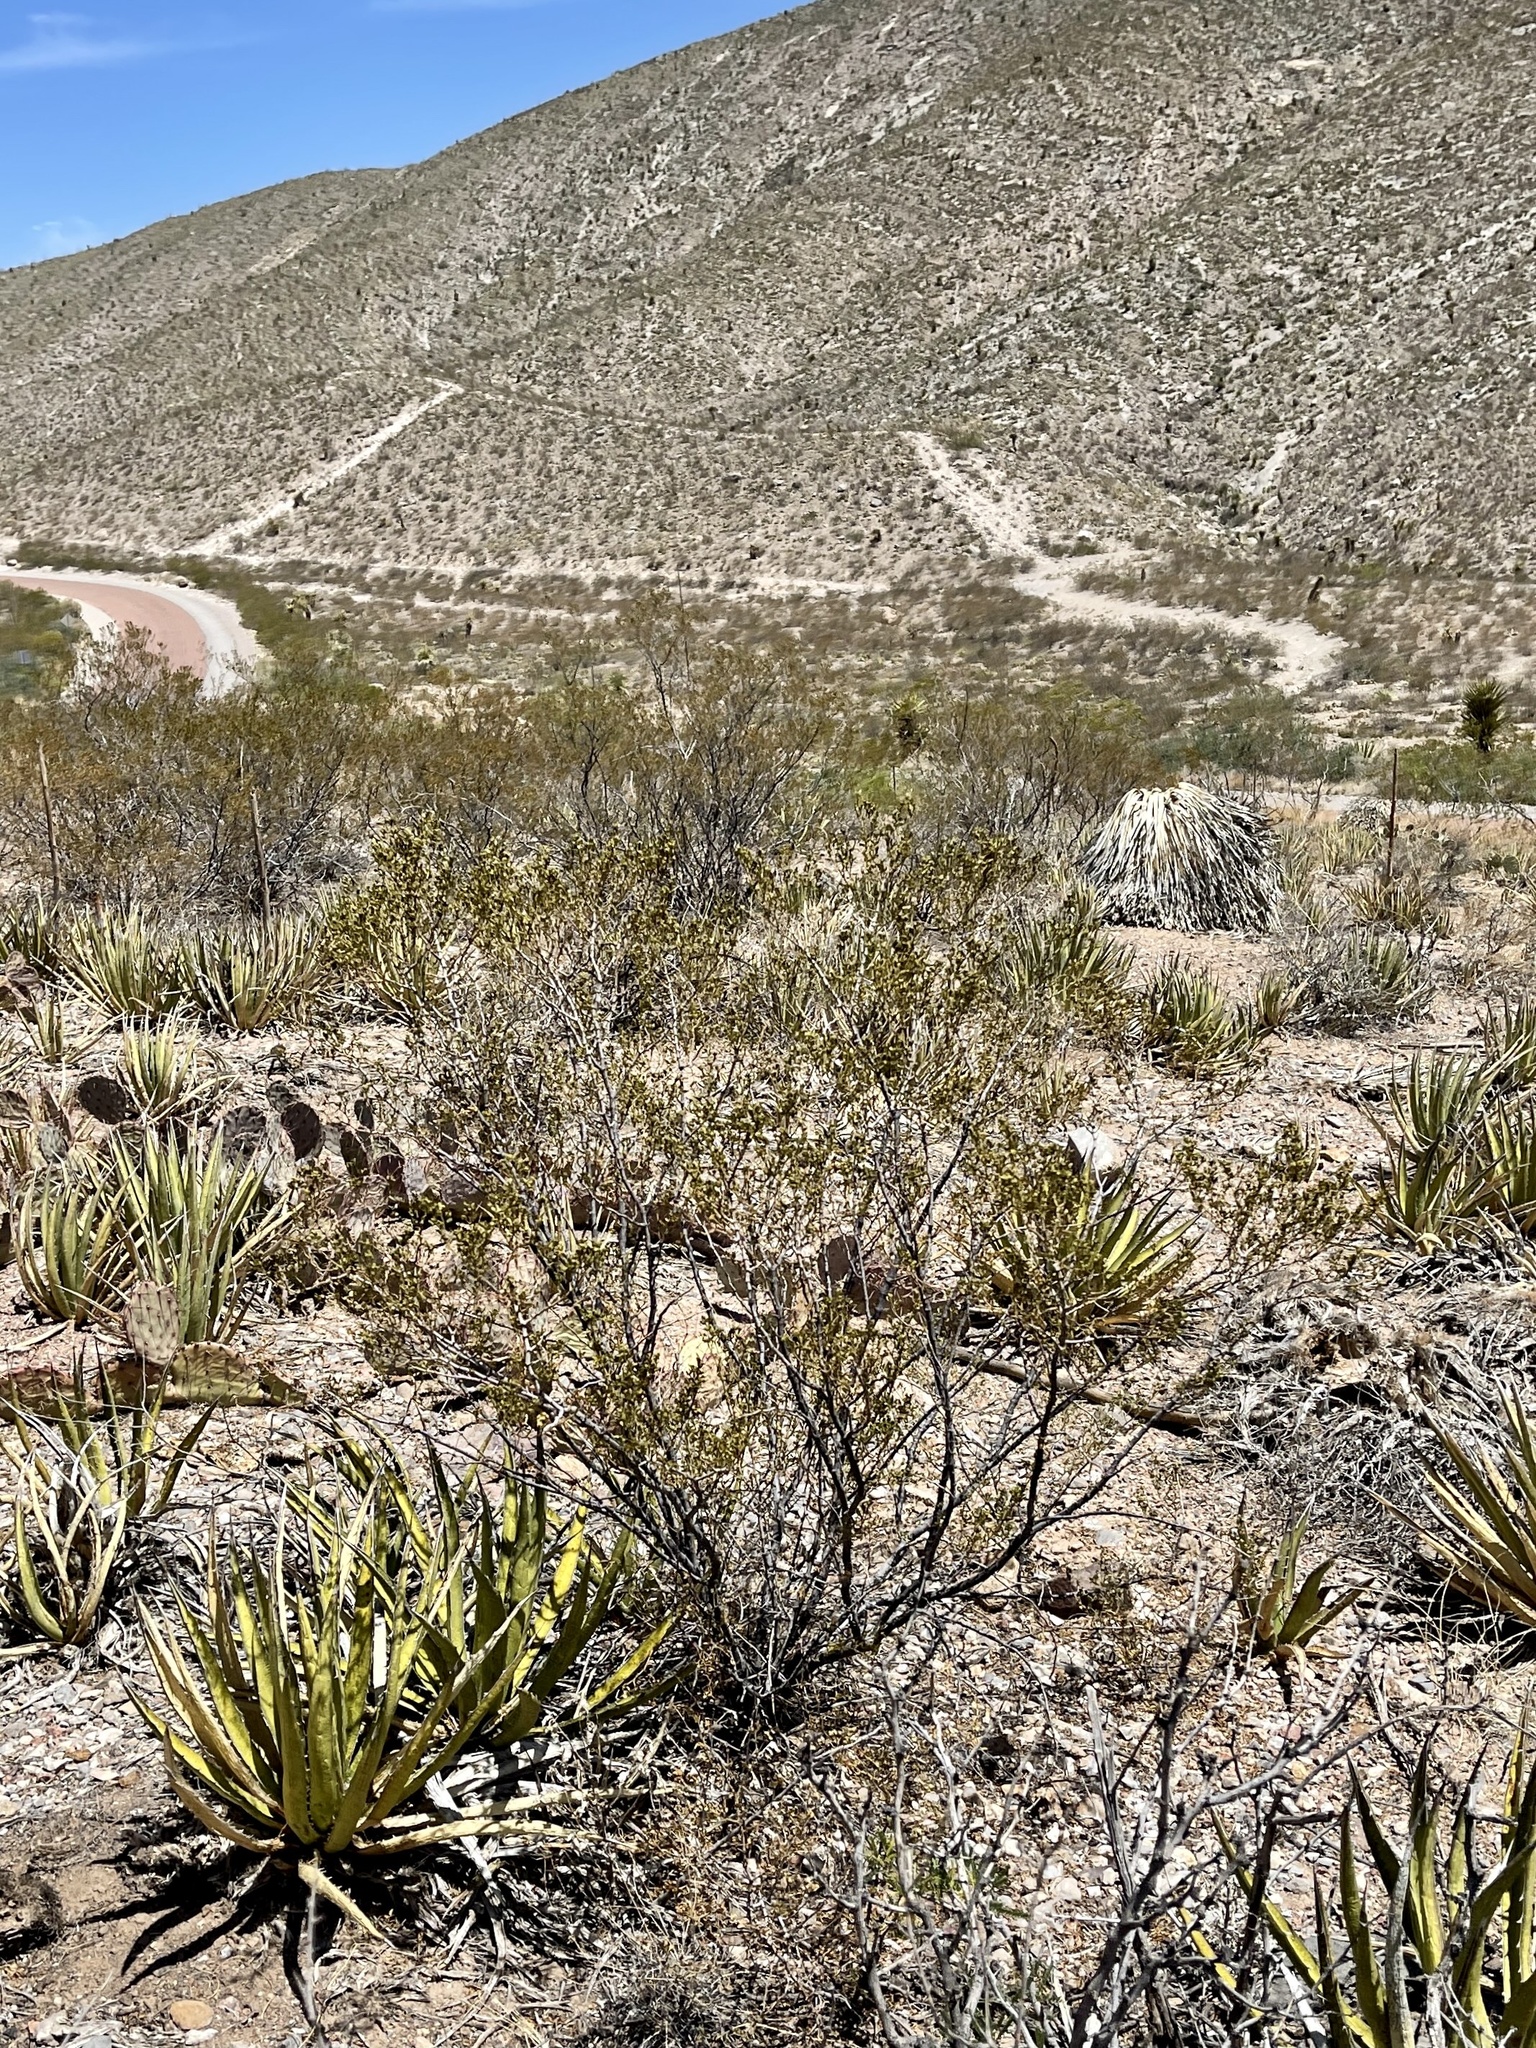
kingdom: Plantae
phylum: Tracheophyta
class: Magnoliopsida
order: Zygophyllales
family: Zygophyllaceae
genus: Larrea
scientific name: Larrea tridentata
